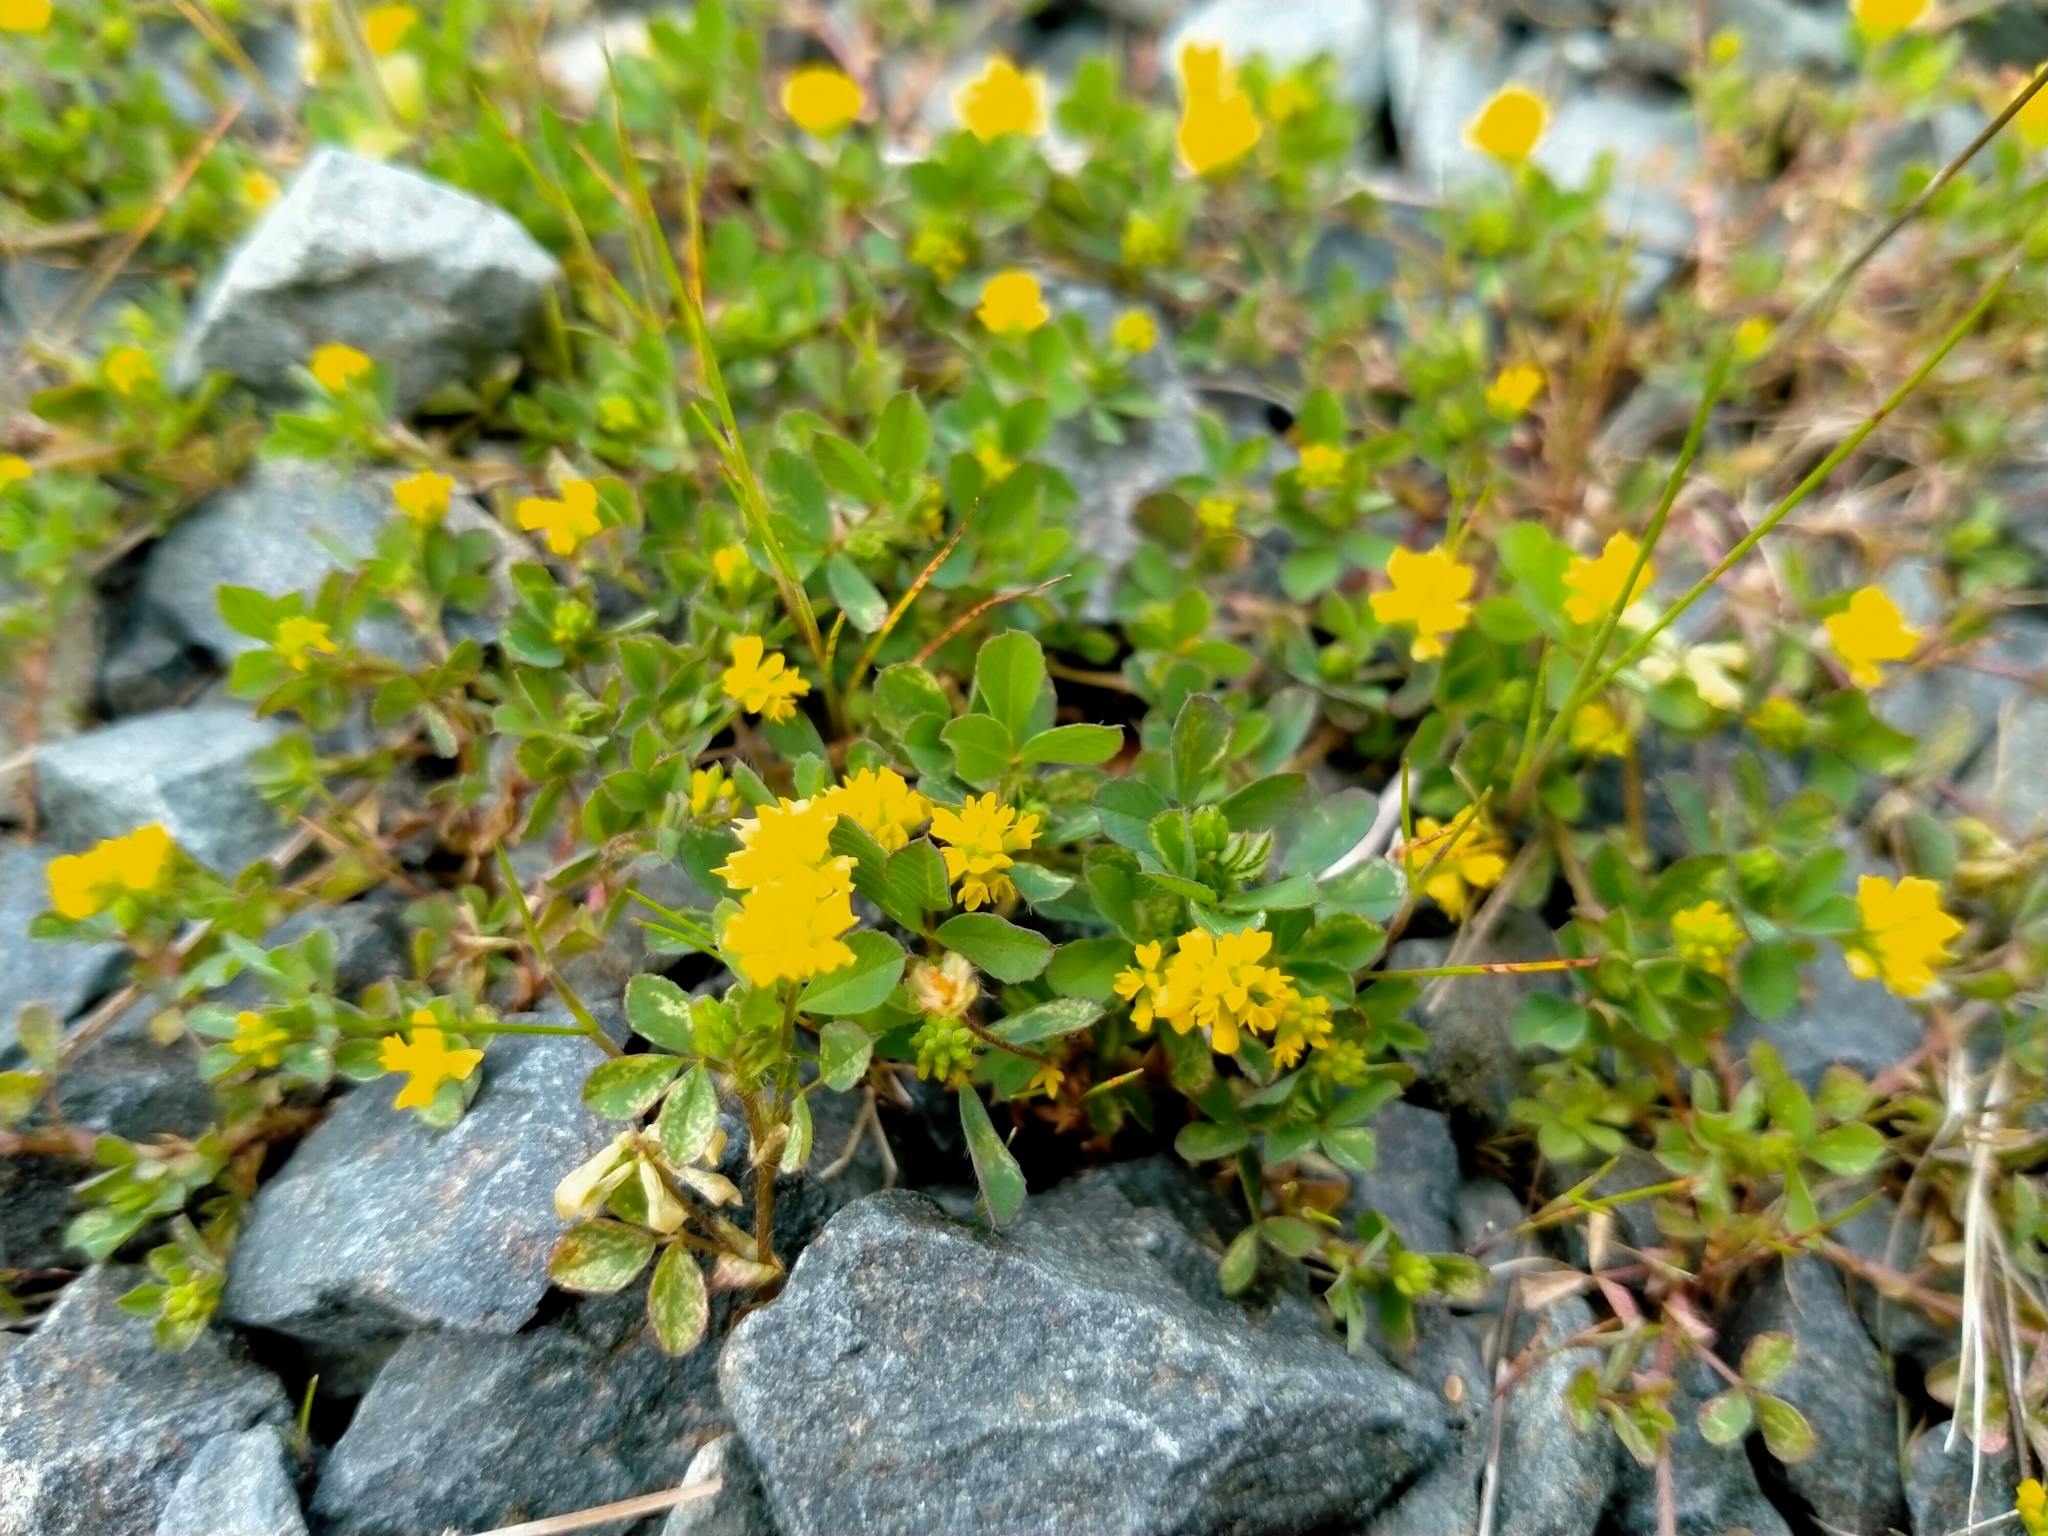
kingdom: Plantae
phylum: Tracheophyta
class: Magnoliopsida
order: Fabales
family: Fabaceae
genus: Trifolium
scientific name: Trifolium dubium
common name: Suckling clover
